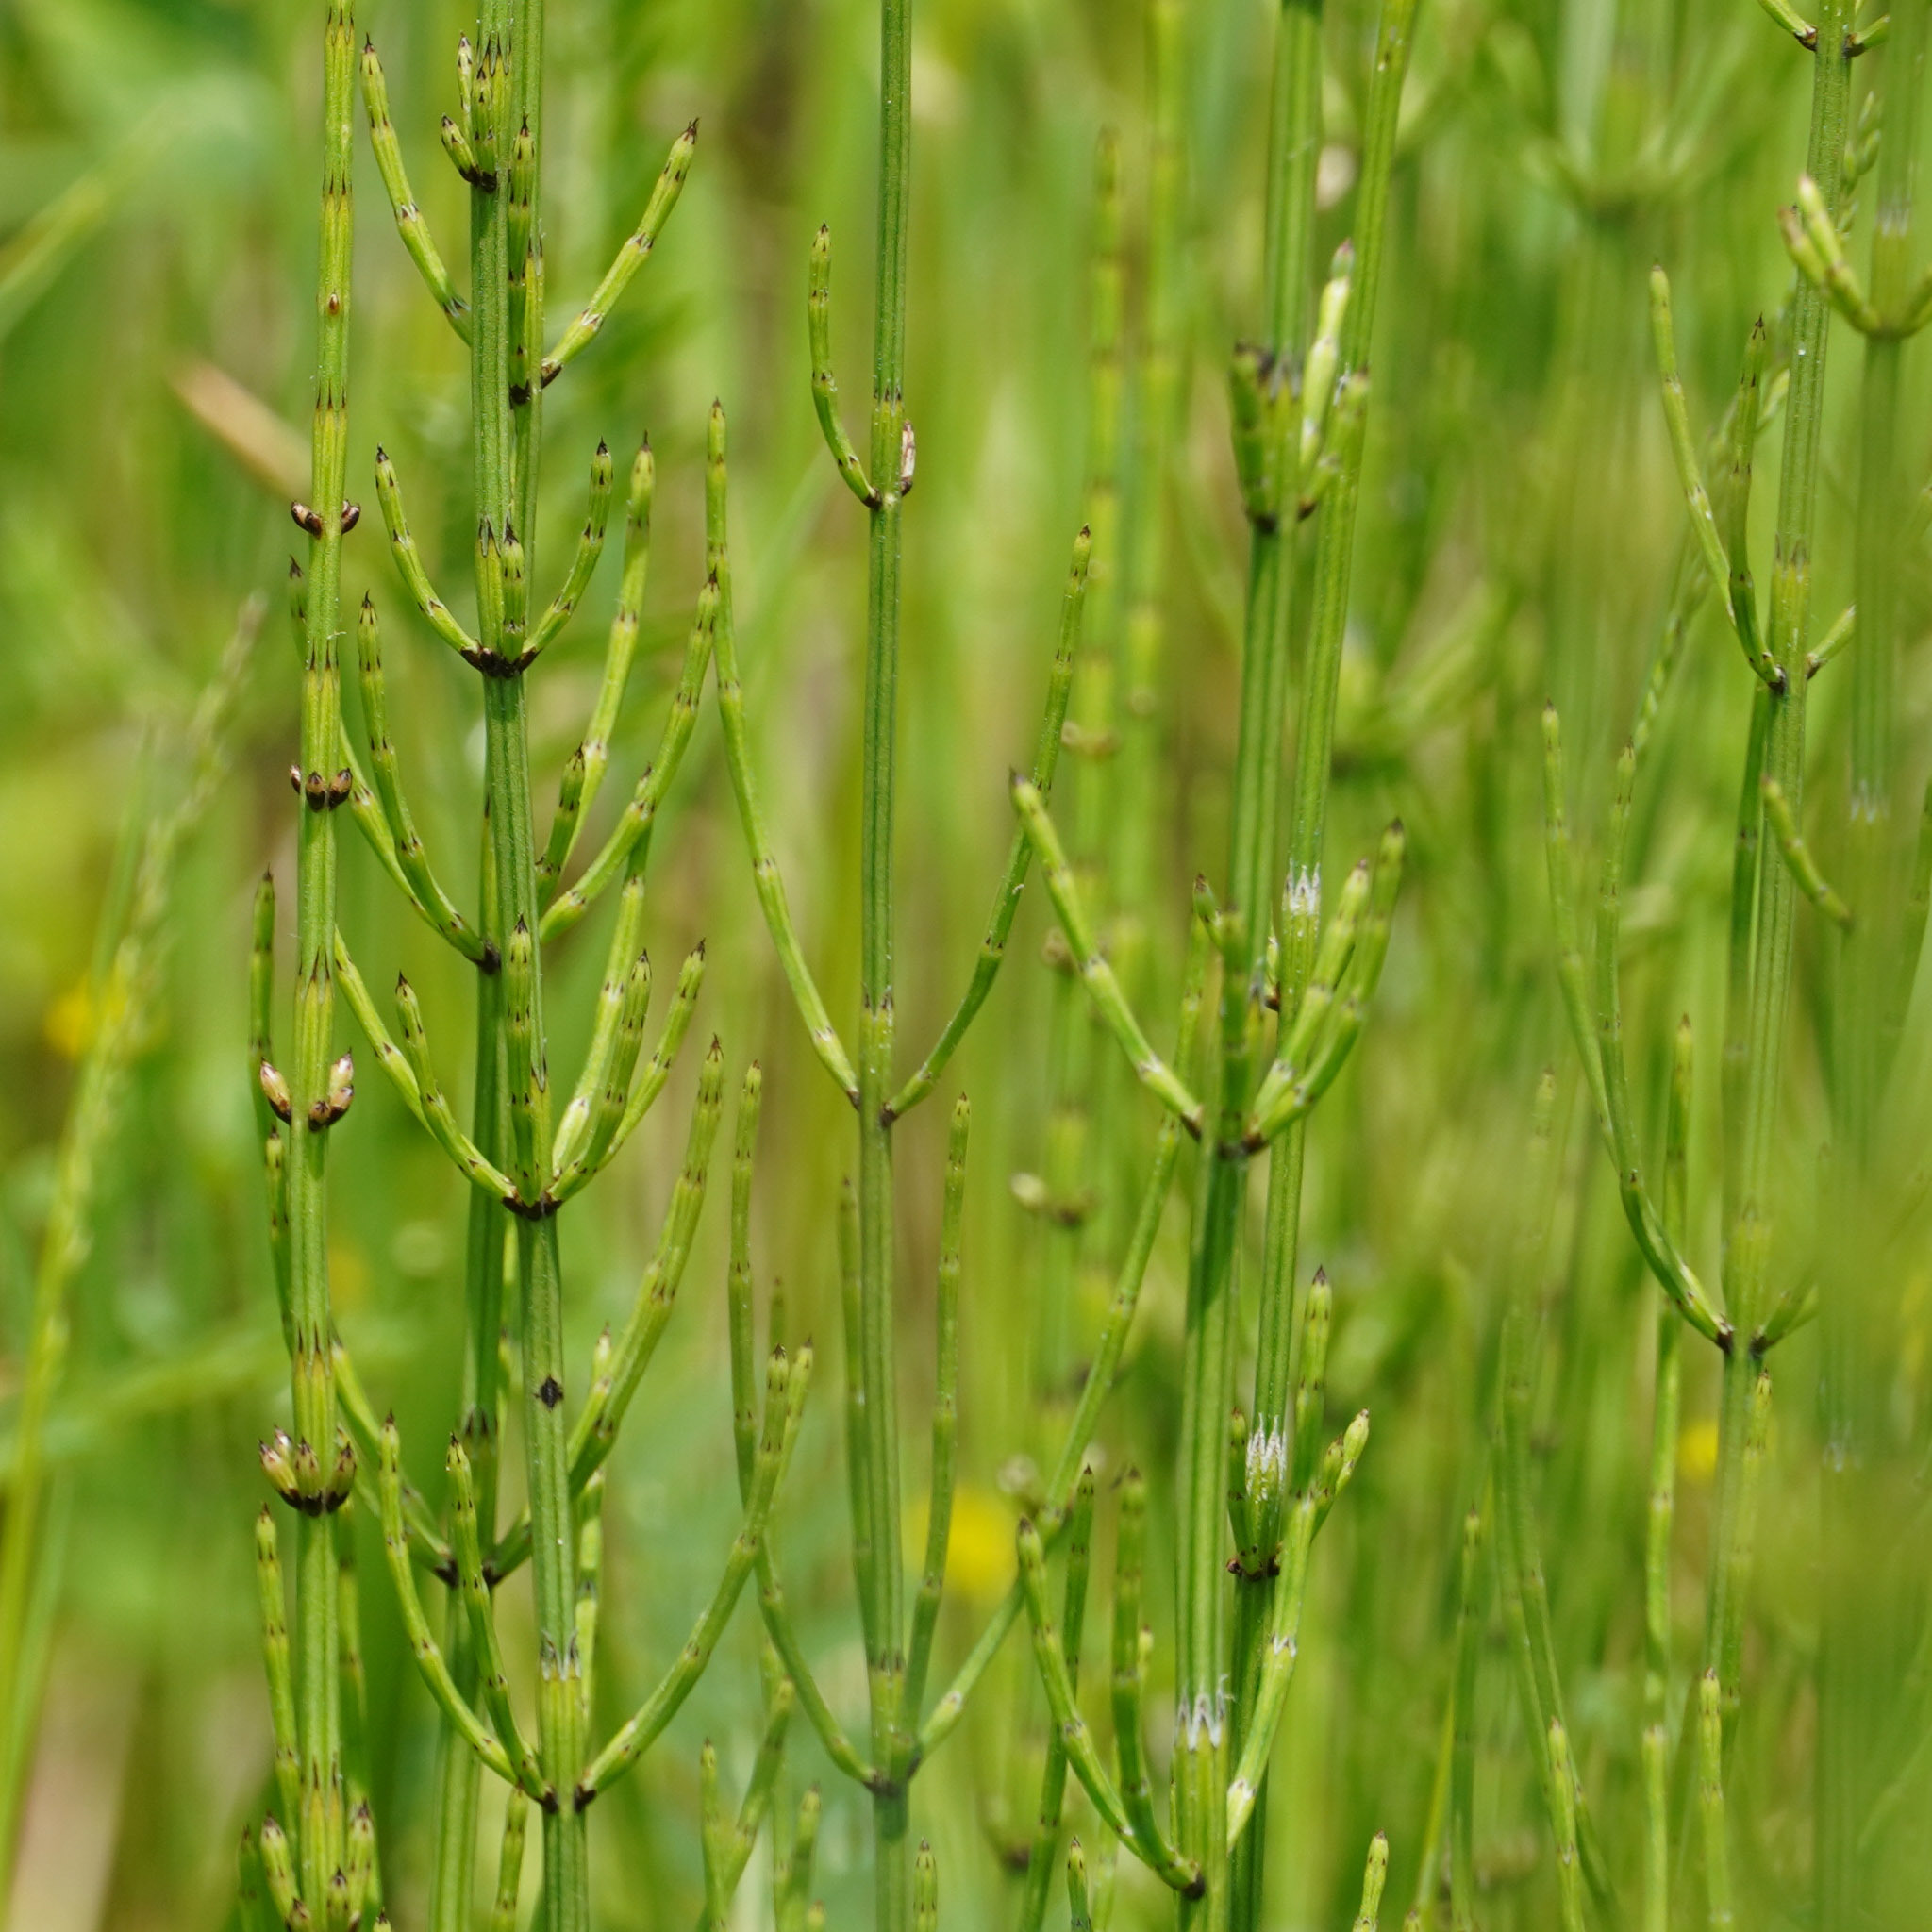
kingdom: Plantae
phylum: Tracheophyta
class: Polypodiopsida
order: Equisetales
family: Equisetaceae
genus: Equisetum
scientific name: Equisetum palustre
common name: Marsh horsetail
